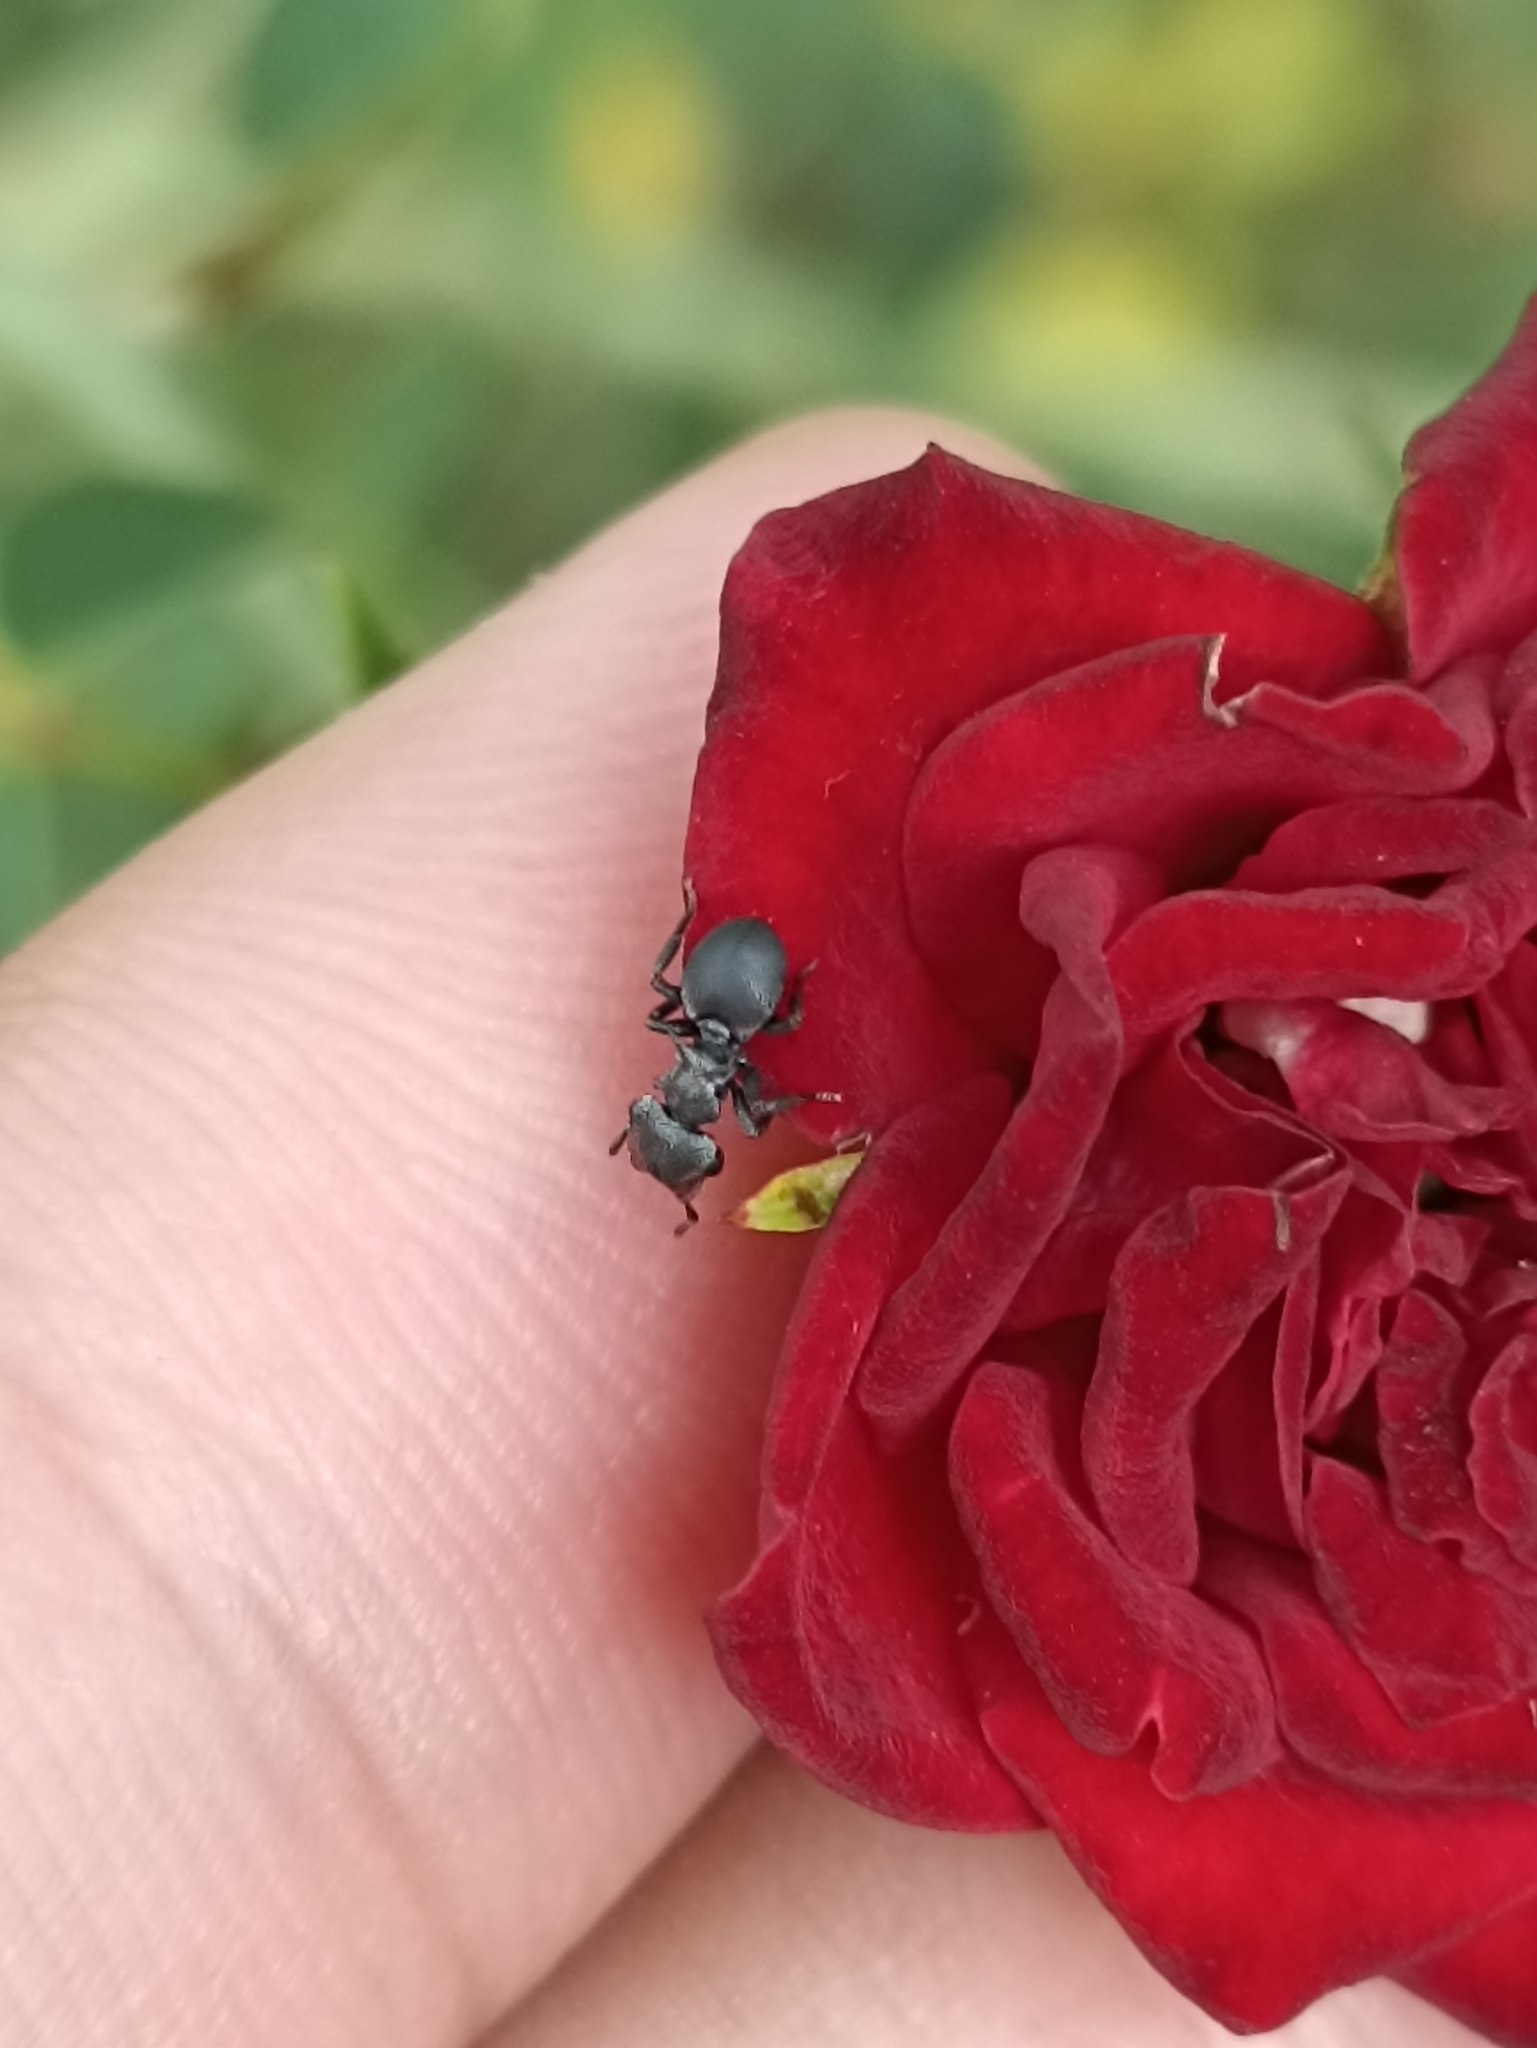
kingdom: Animalia
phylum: Arthropoda
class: Insecta
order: Hymenoptera
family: Formicidae
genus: Cephalotes
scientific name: Cephalotes pusillus
